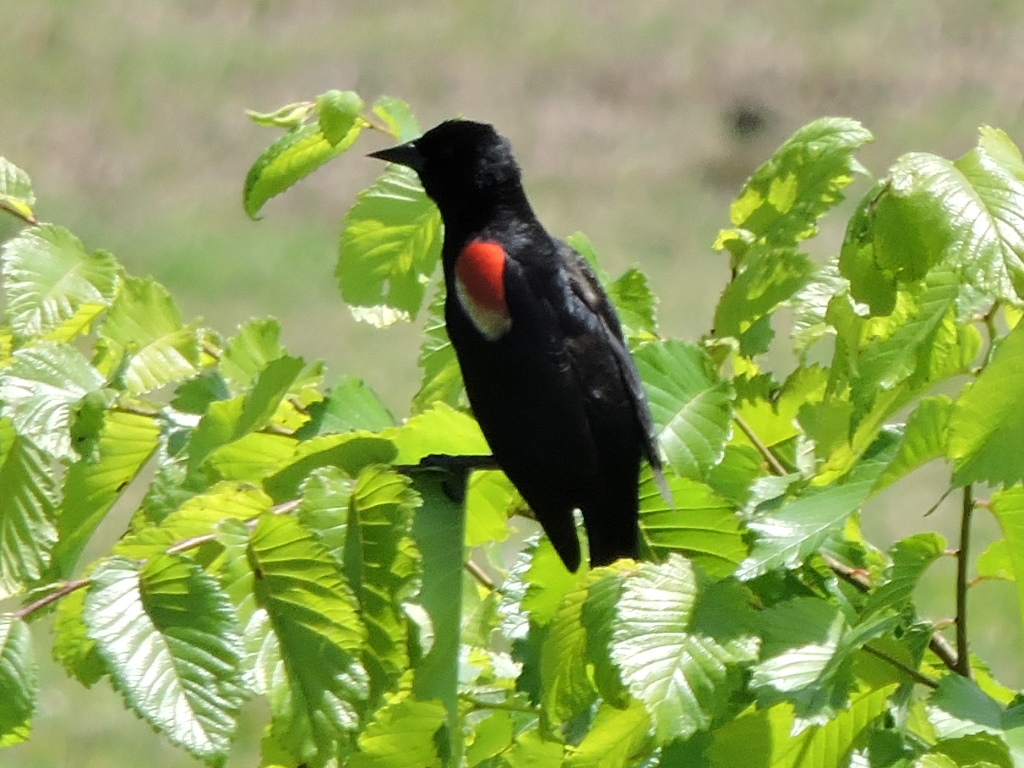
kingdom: Animalia
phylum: Chordata
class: Aves
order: Passeriformes
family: Icteridae
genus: Agelaius
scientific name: Agelaius phoeniceus
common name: Red-winged blackbird
